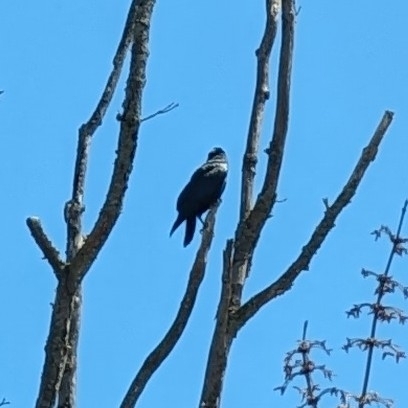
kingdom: Animalia
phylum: Chordata
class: Aves
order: Passeriformes
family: Corvidae
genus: Corvus
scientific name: Corvus ossifragus
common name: Fish crow
